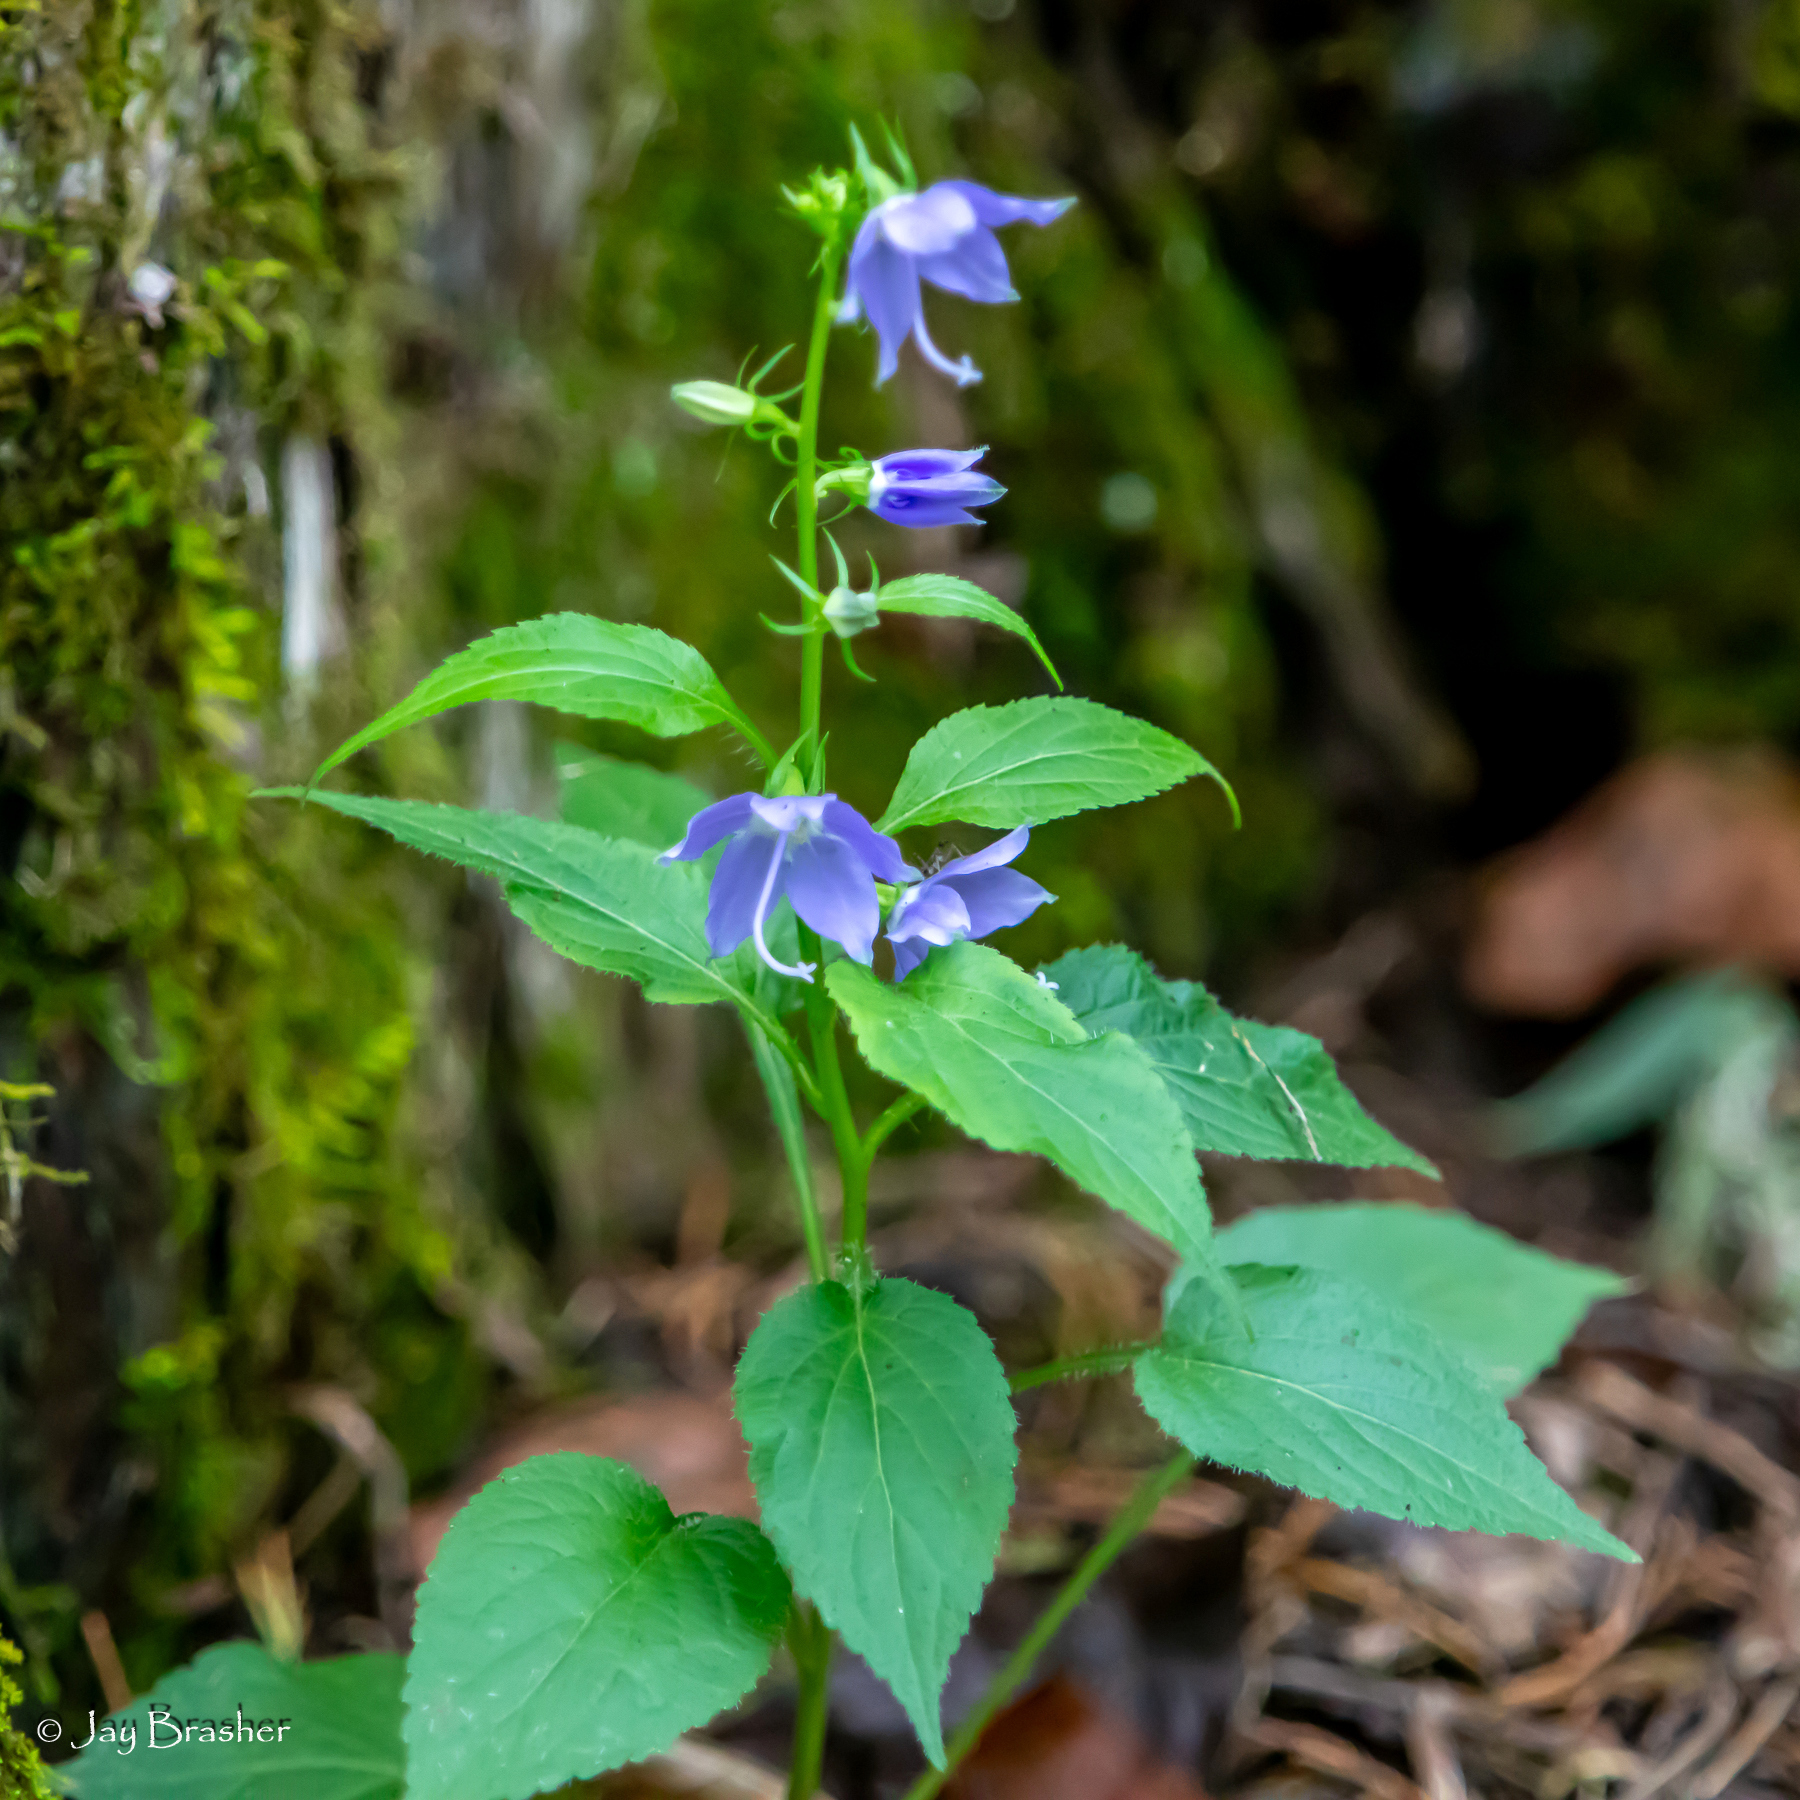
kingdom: Plantae
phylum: Tracheophyta
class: Magnoliopsida
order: Asterales
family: Campanulaceae
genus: Campanulastrum
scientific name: Campanulastrum americanum
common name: American bellflower
